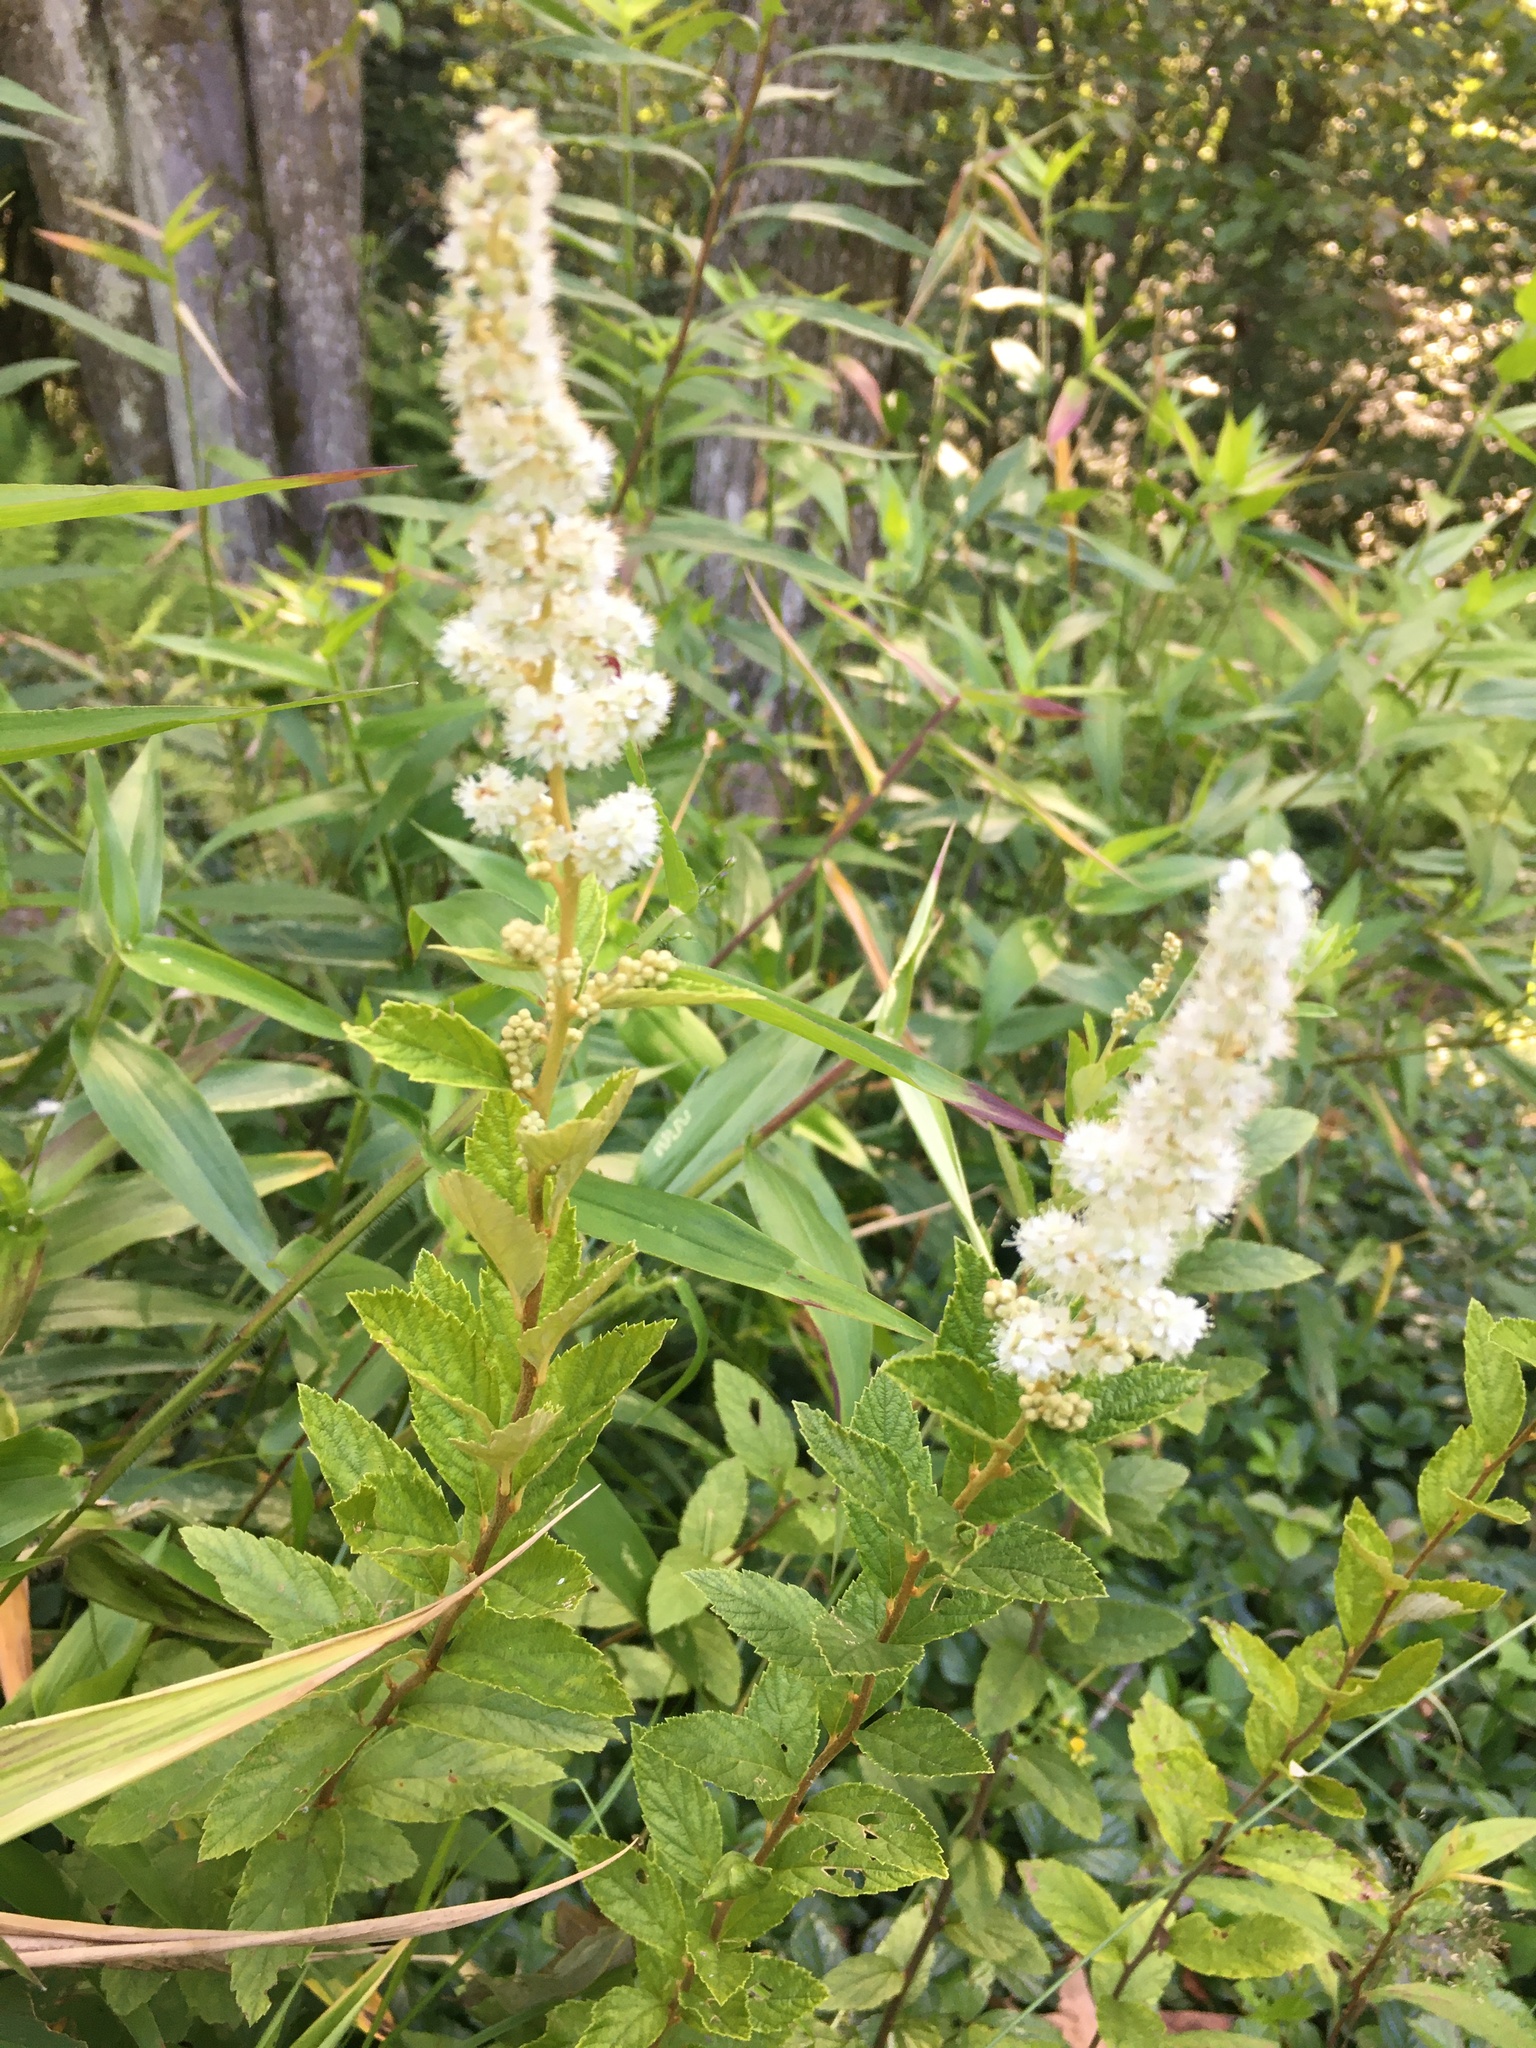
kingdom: Plantae
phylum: Tracheophyta
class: Magnoliopsida
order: Rosales
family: Rosaceae
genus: Spiraea
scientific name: Spiraea tomentosa
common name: Hardhack
